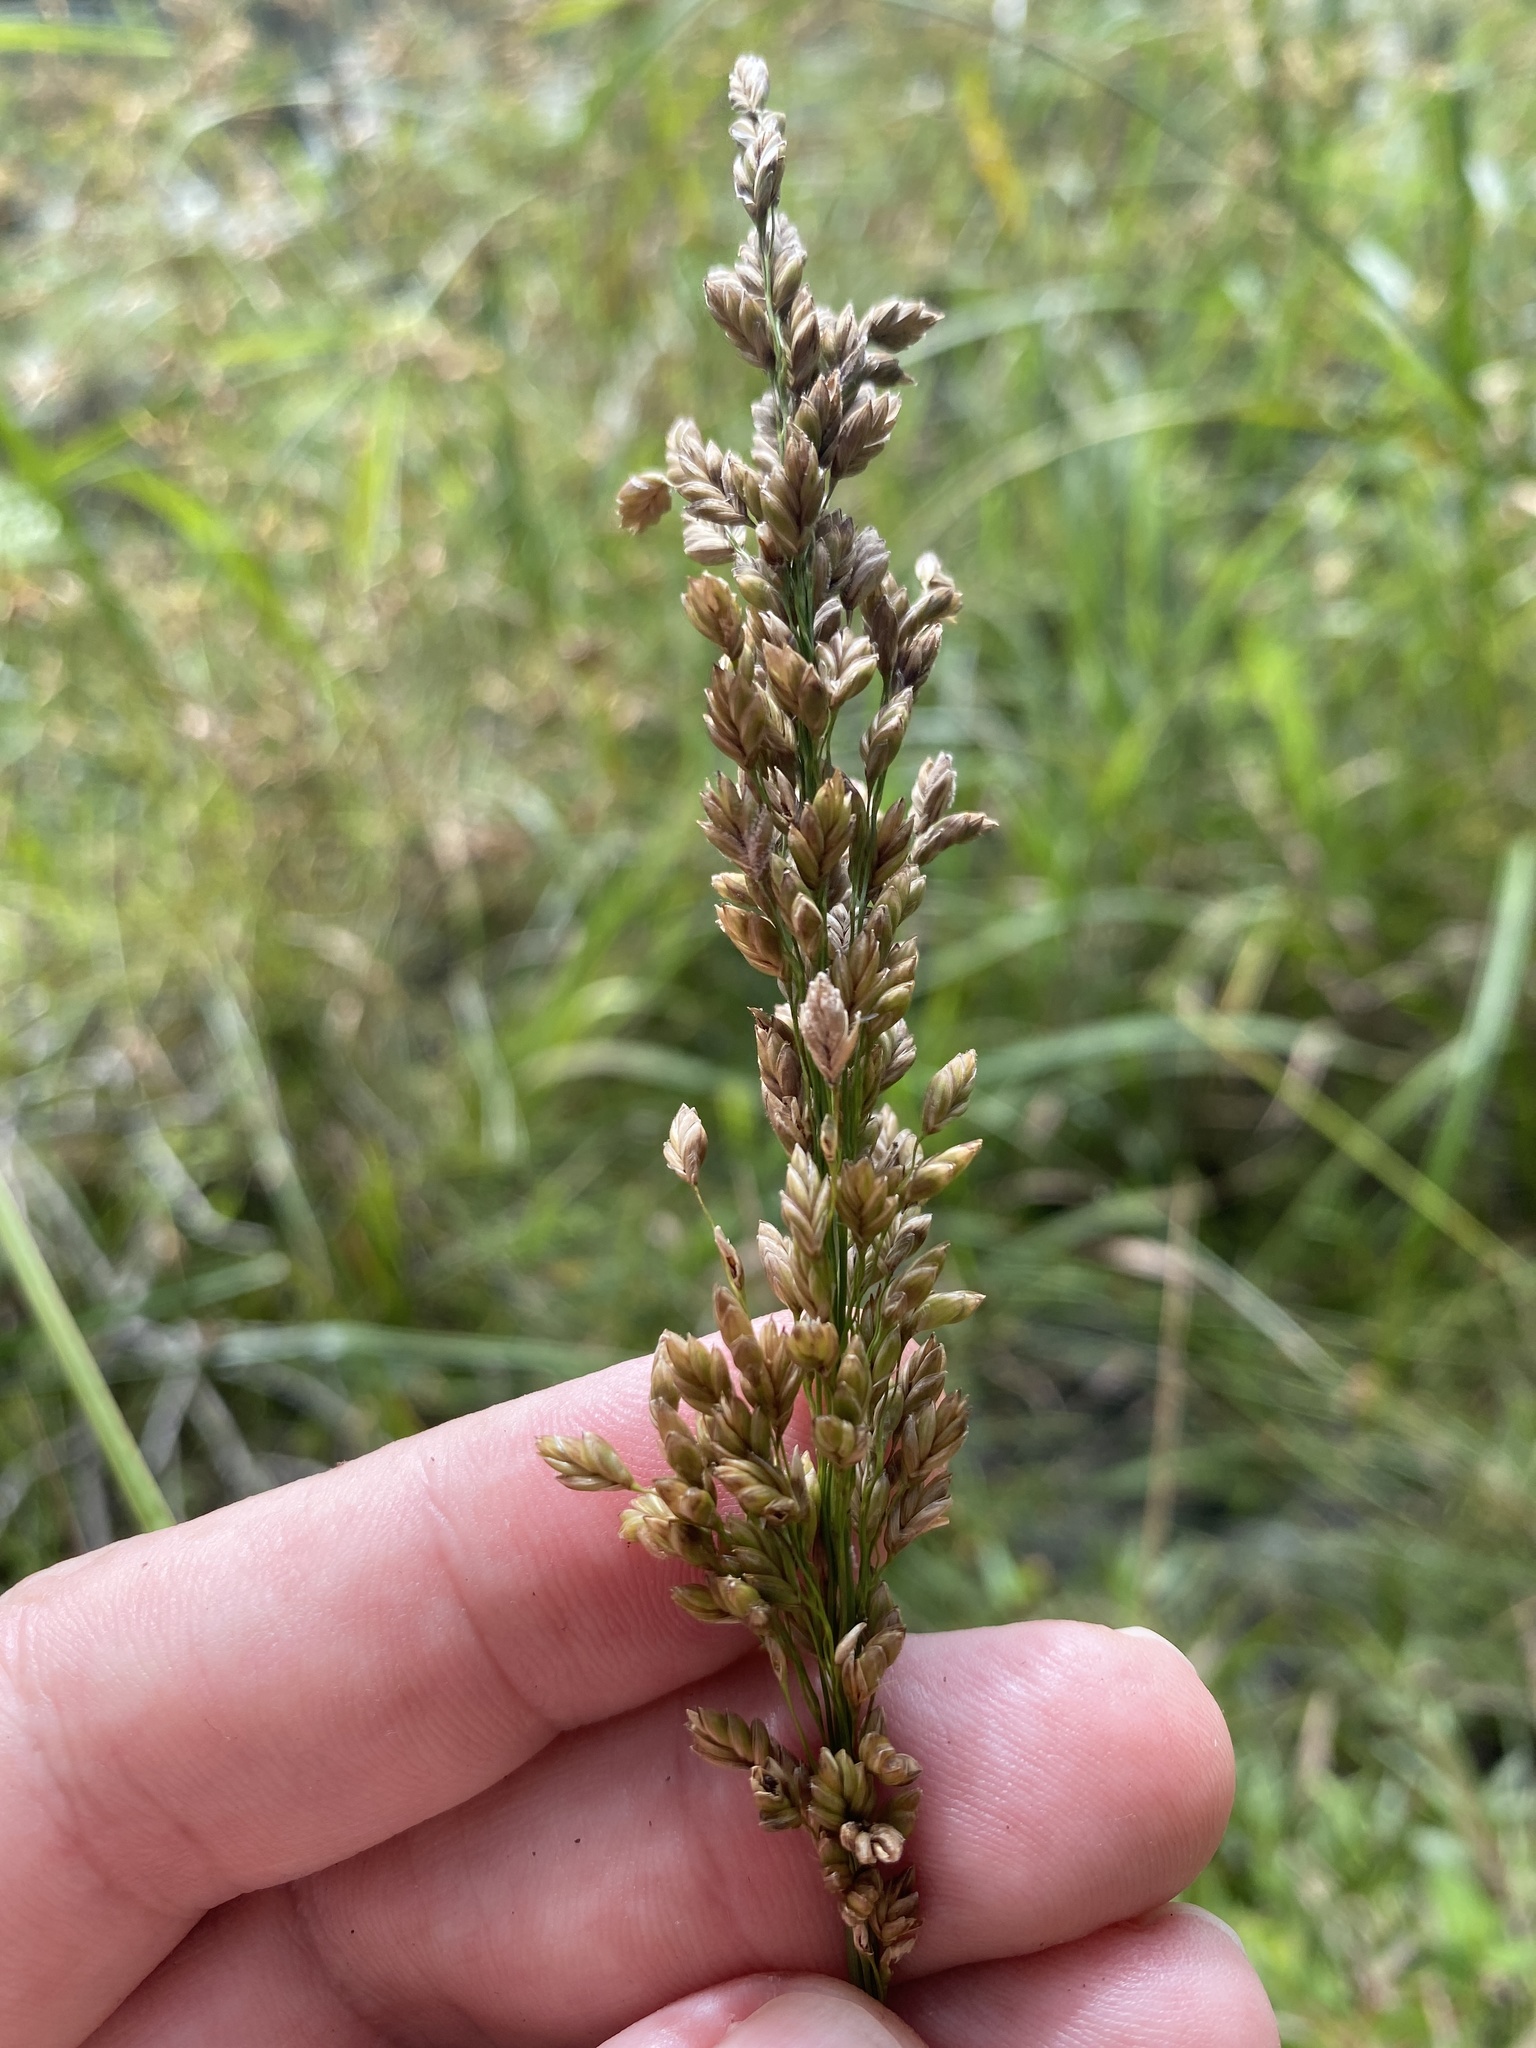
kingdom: Plantae
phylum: Tracheophyta
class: Liliopsida
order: Poales
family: Poaceae
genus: Glyceria
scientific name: Glyceria obtusa
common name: Atlantic mannagrass
